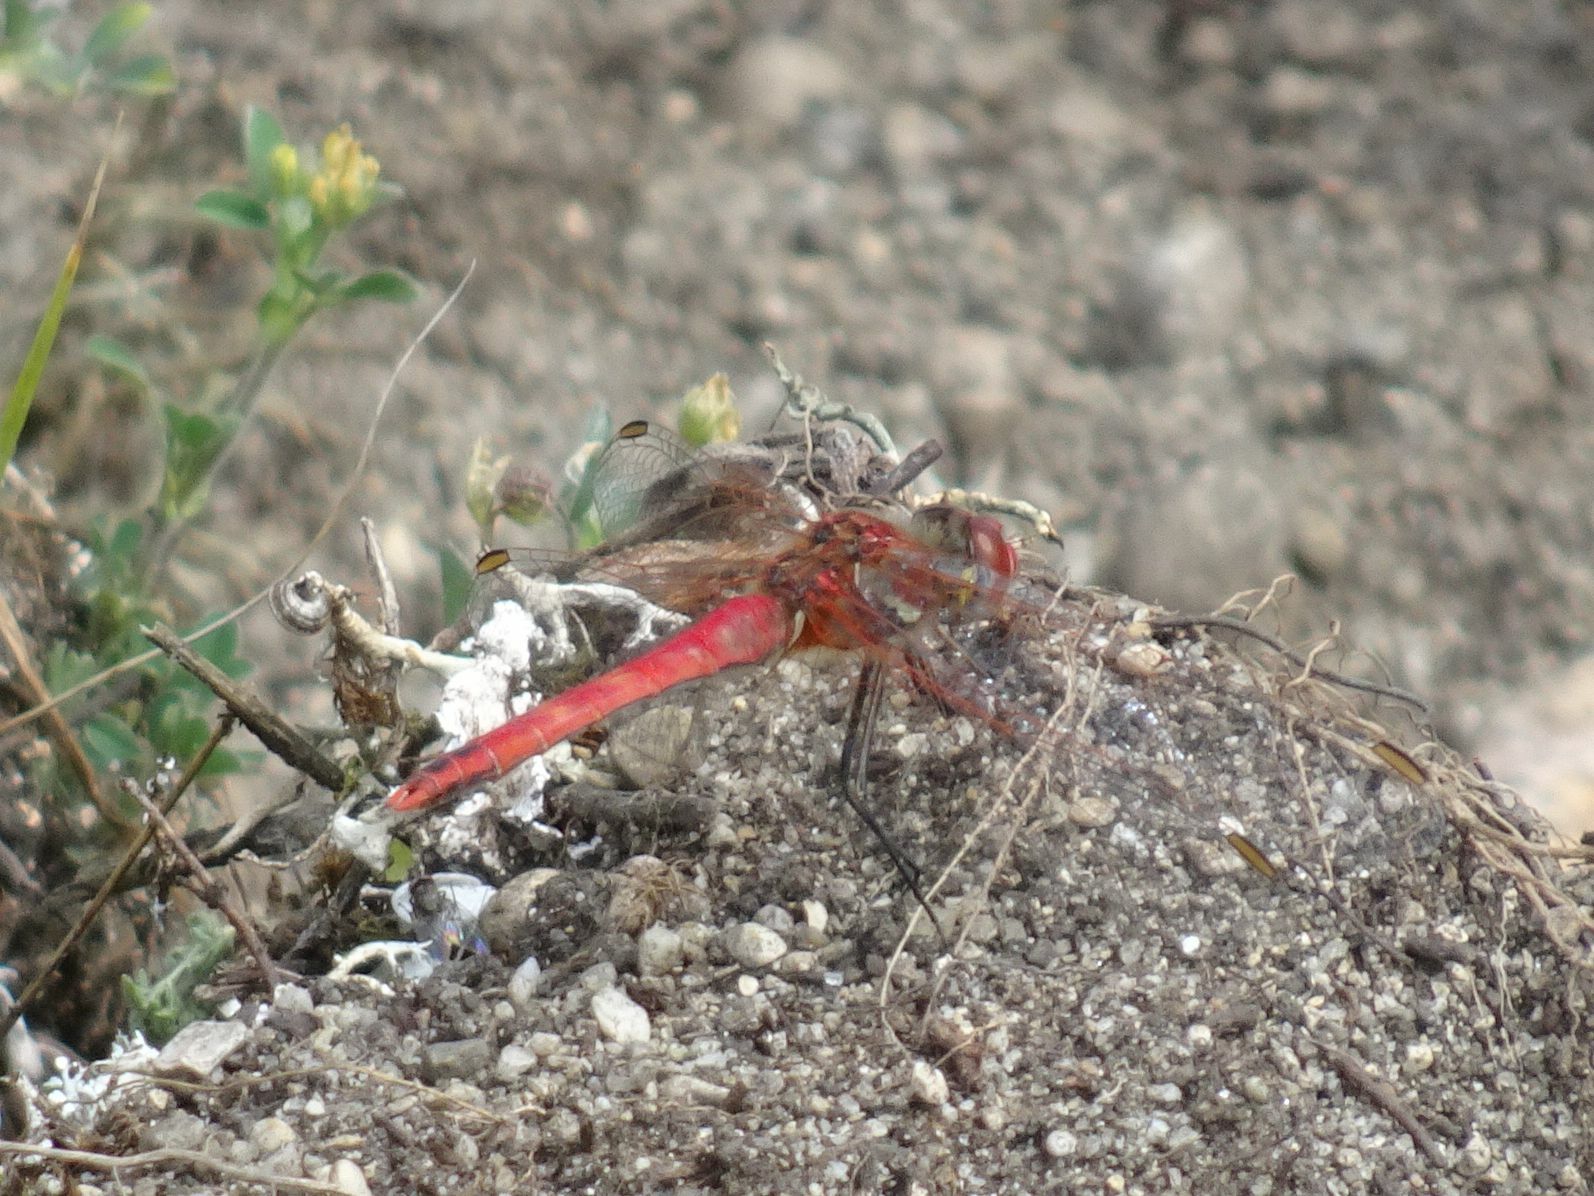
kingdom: Animalia
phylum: Arthropoda
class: Insecta
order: Odonata
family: Libellulidae
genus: Sympetrum
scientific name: Sympetrum fonscolombii
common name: Red-veined darter
